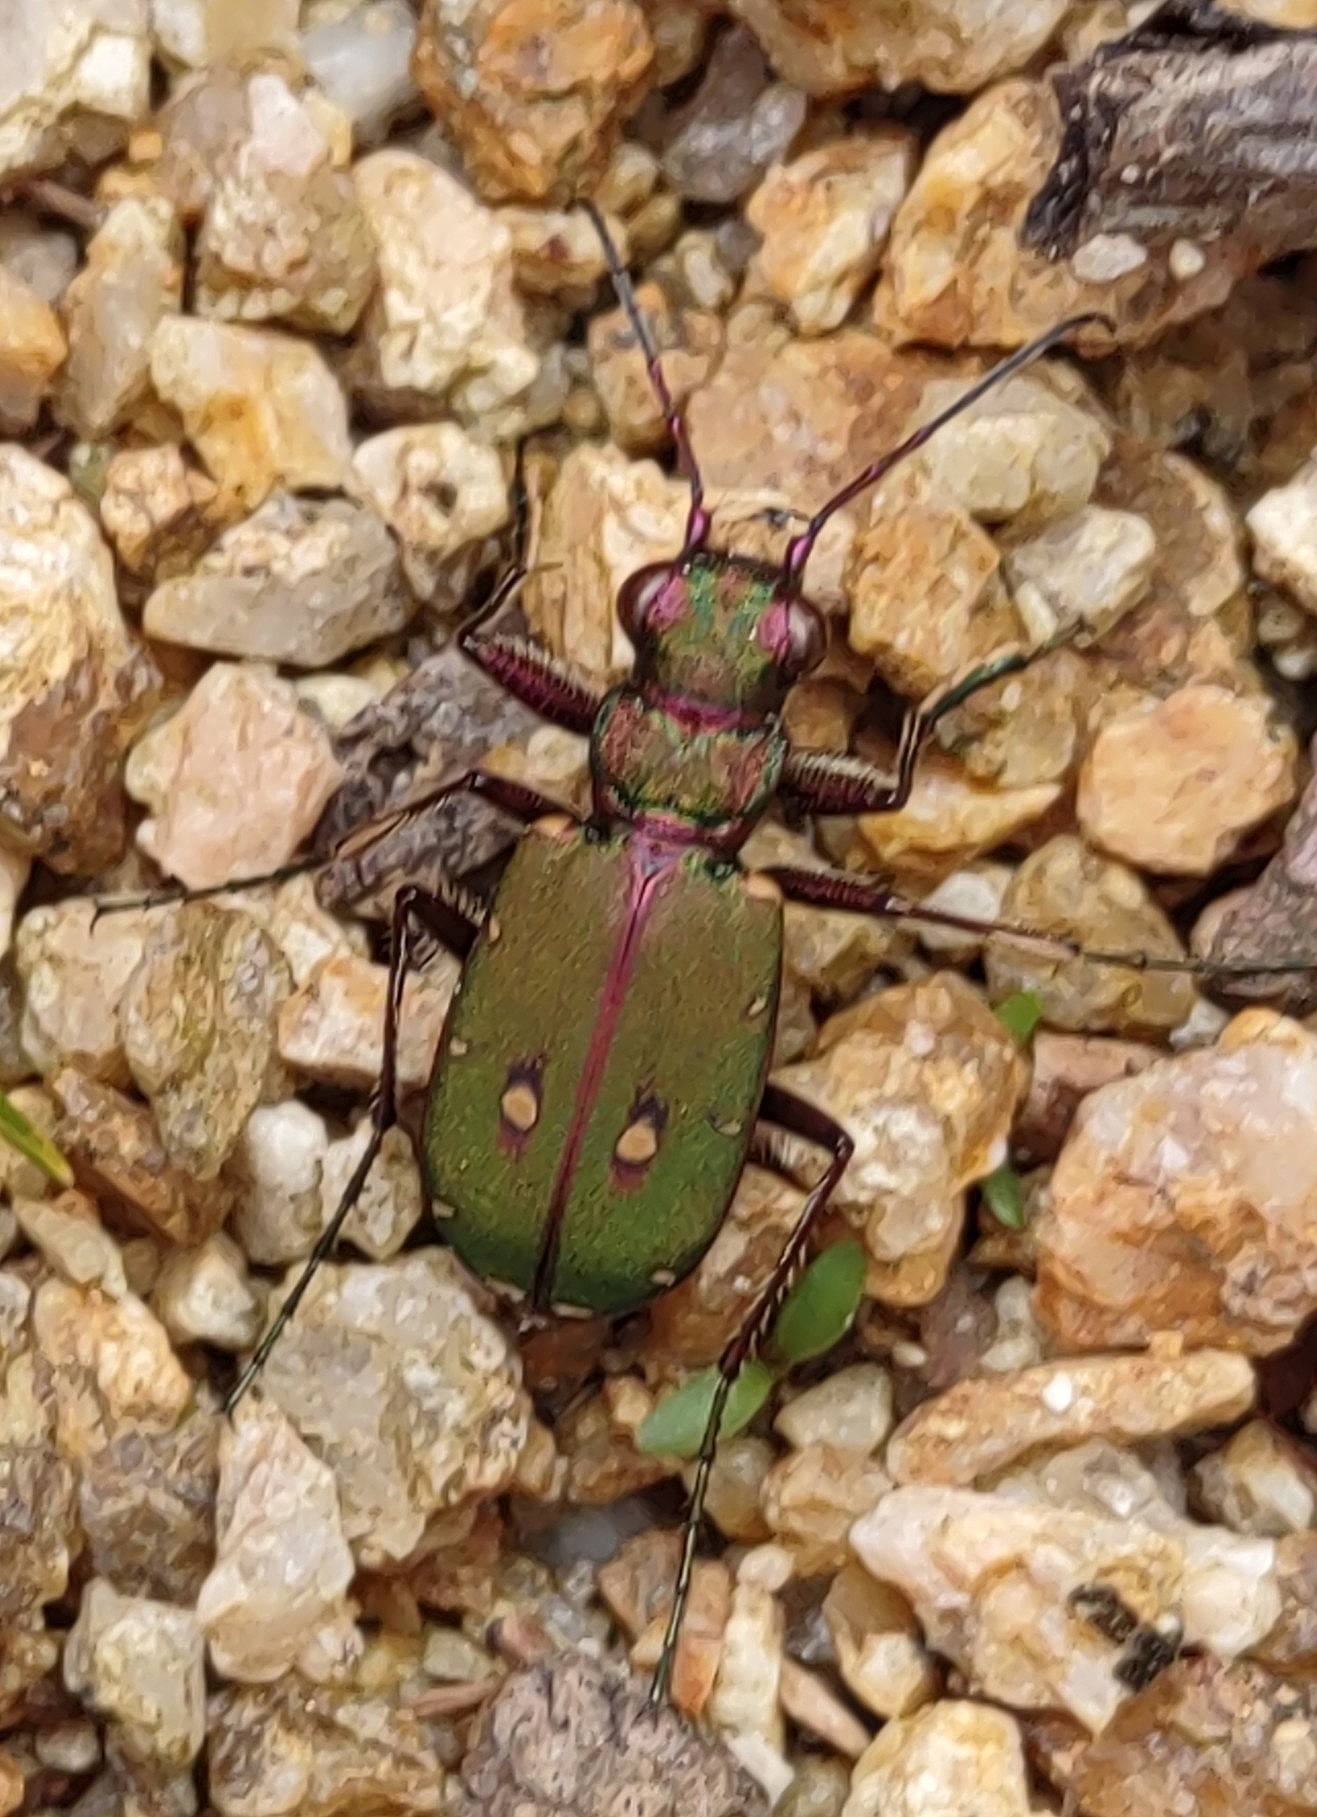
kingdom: Animalia
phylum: Arthropoda
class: Insecta
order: Coleoptera
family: Carabidae
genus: Cicindela
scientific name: Cicindela campestris
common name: Common tiger beetle
